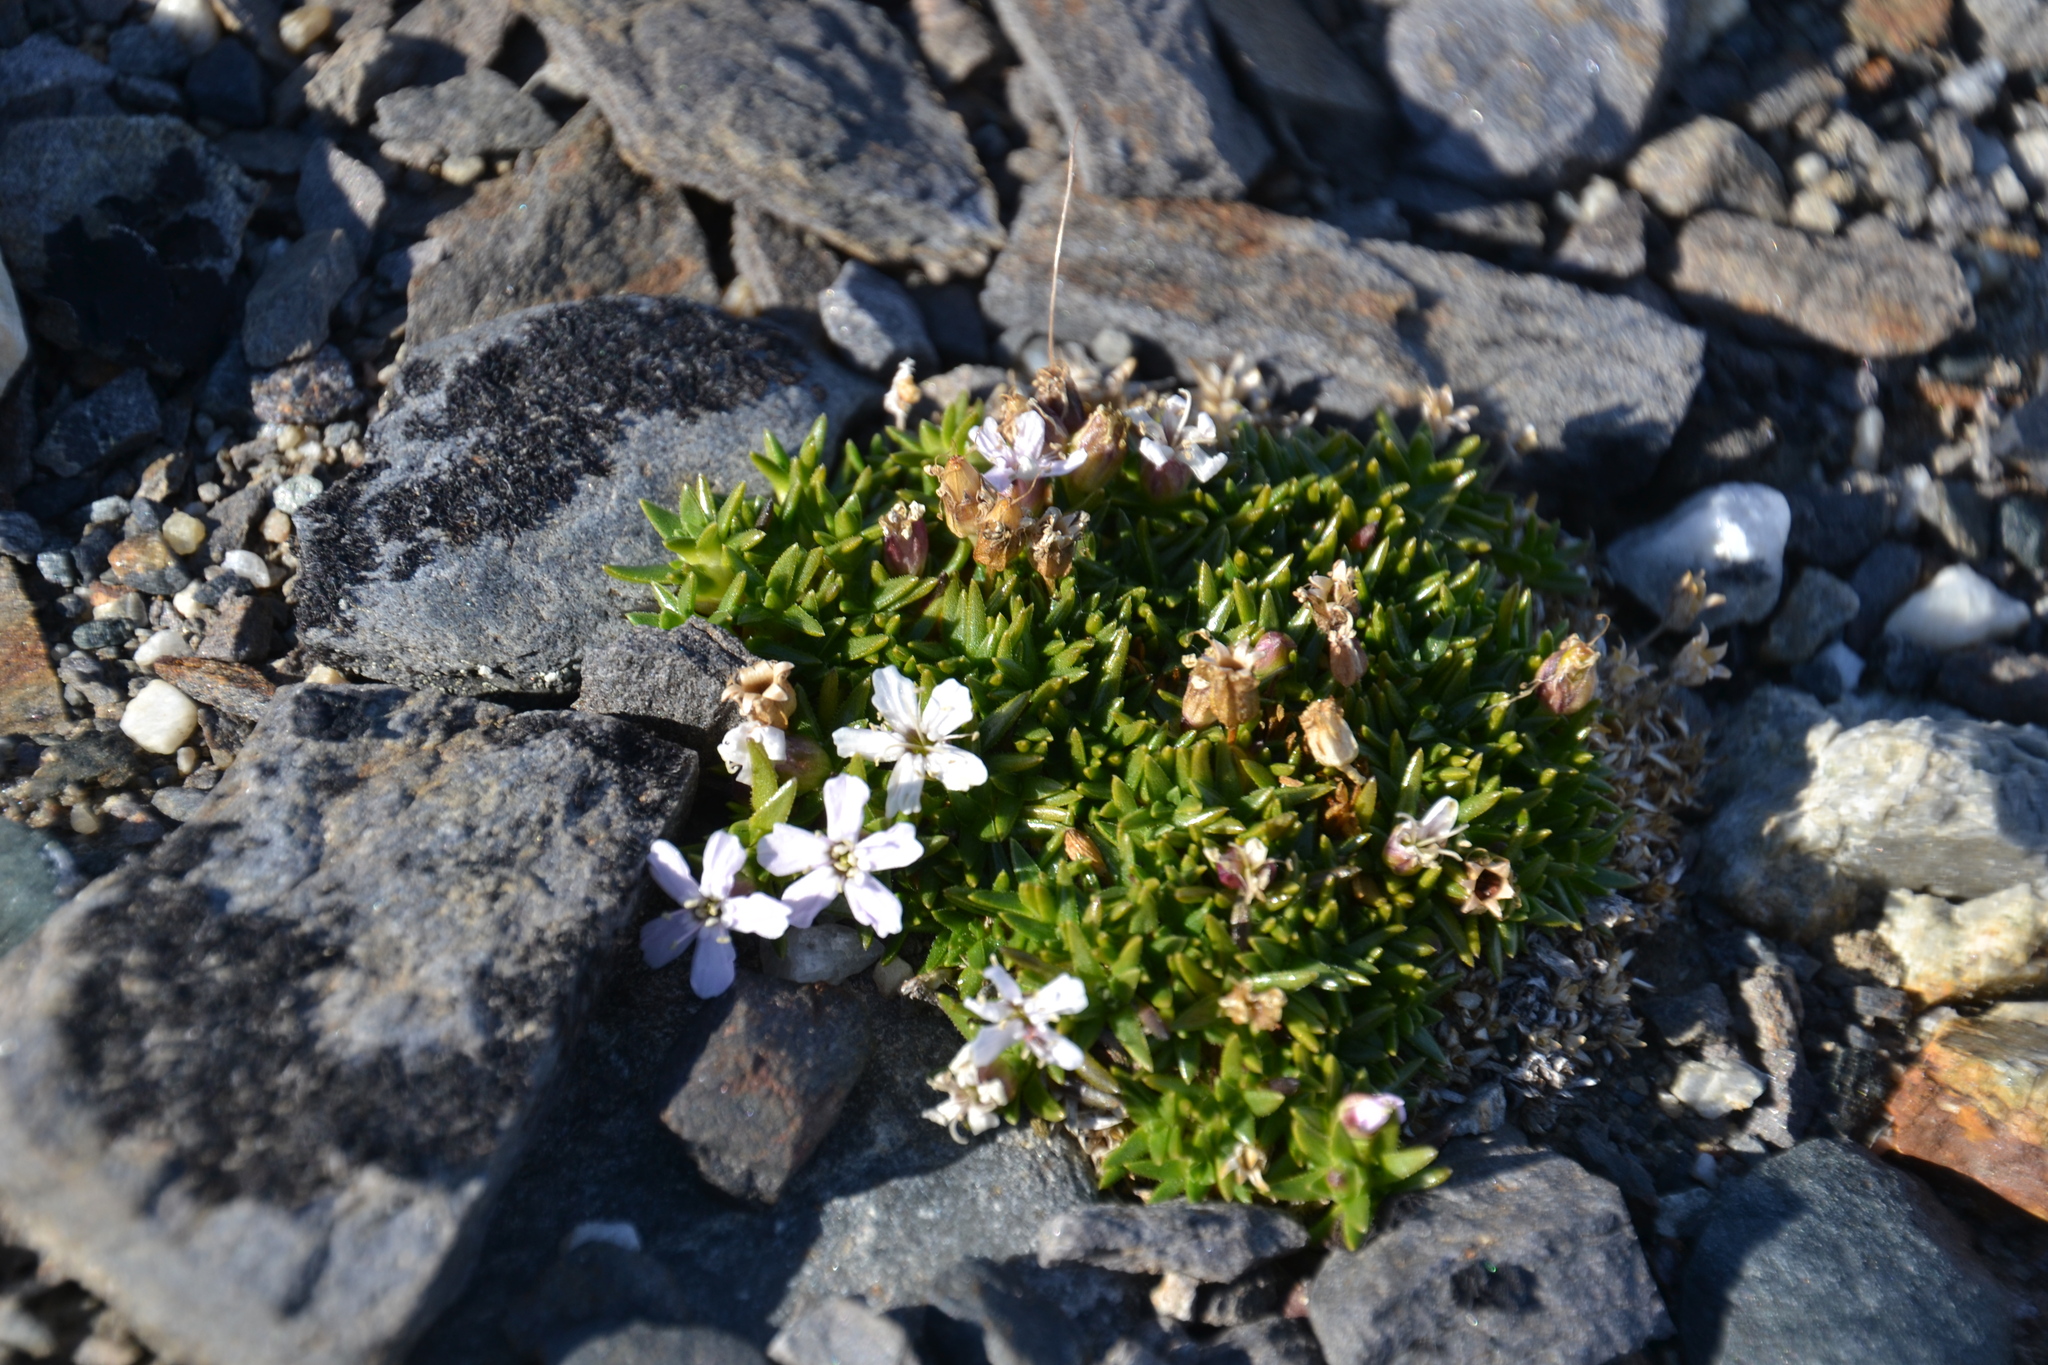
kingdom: Plantae
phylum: Tracheophyta
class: Magnoliopsida
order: Caryophyllales
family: Caryophyllaceae
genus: Silene
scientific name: Silene acaulis
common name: Moss campion
